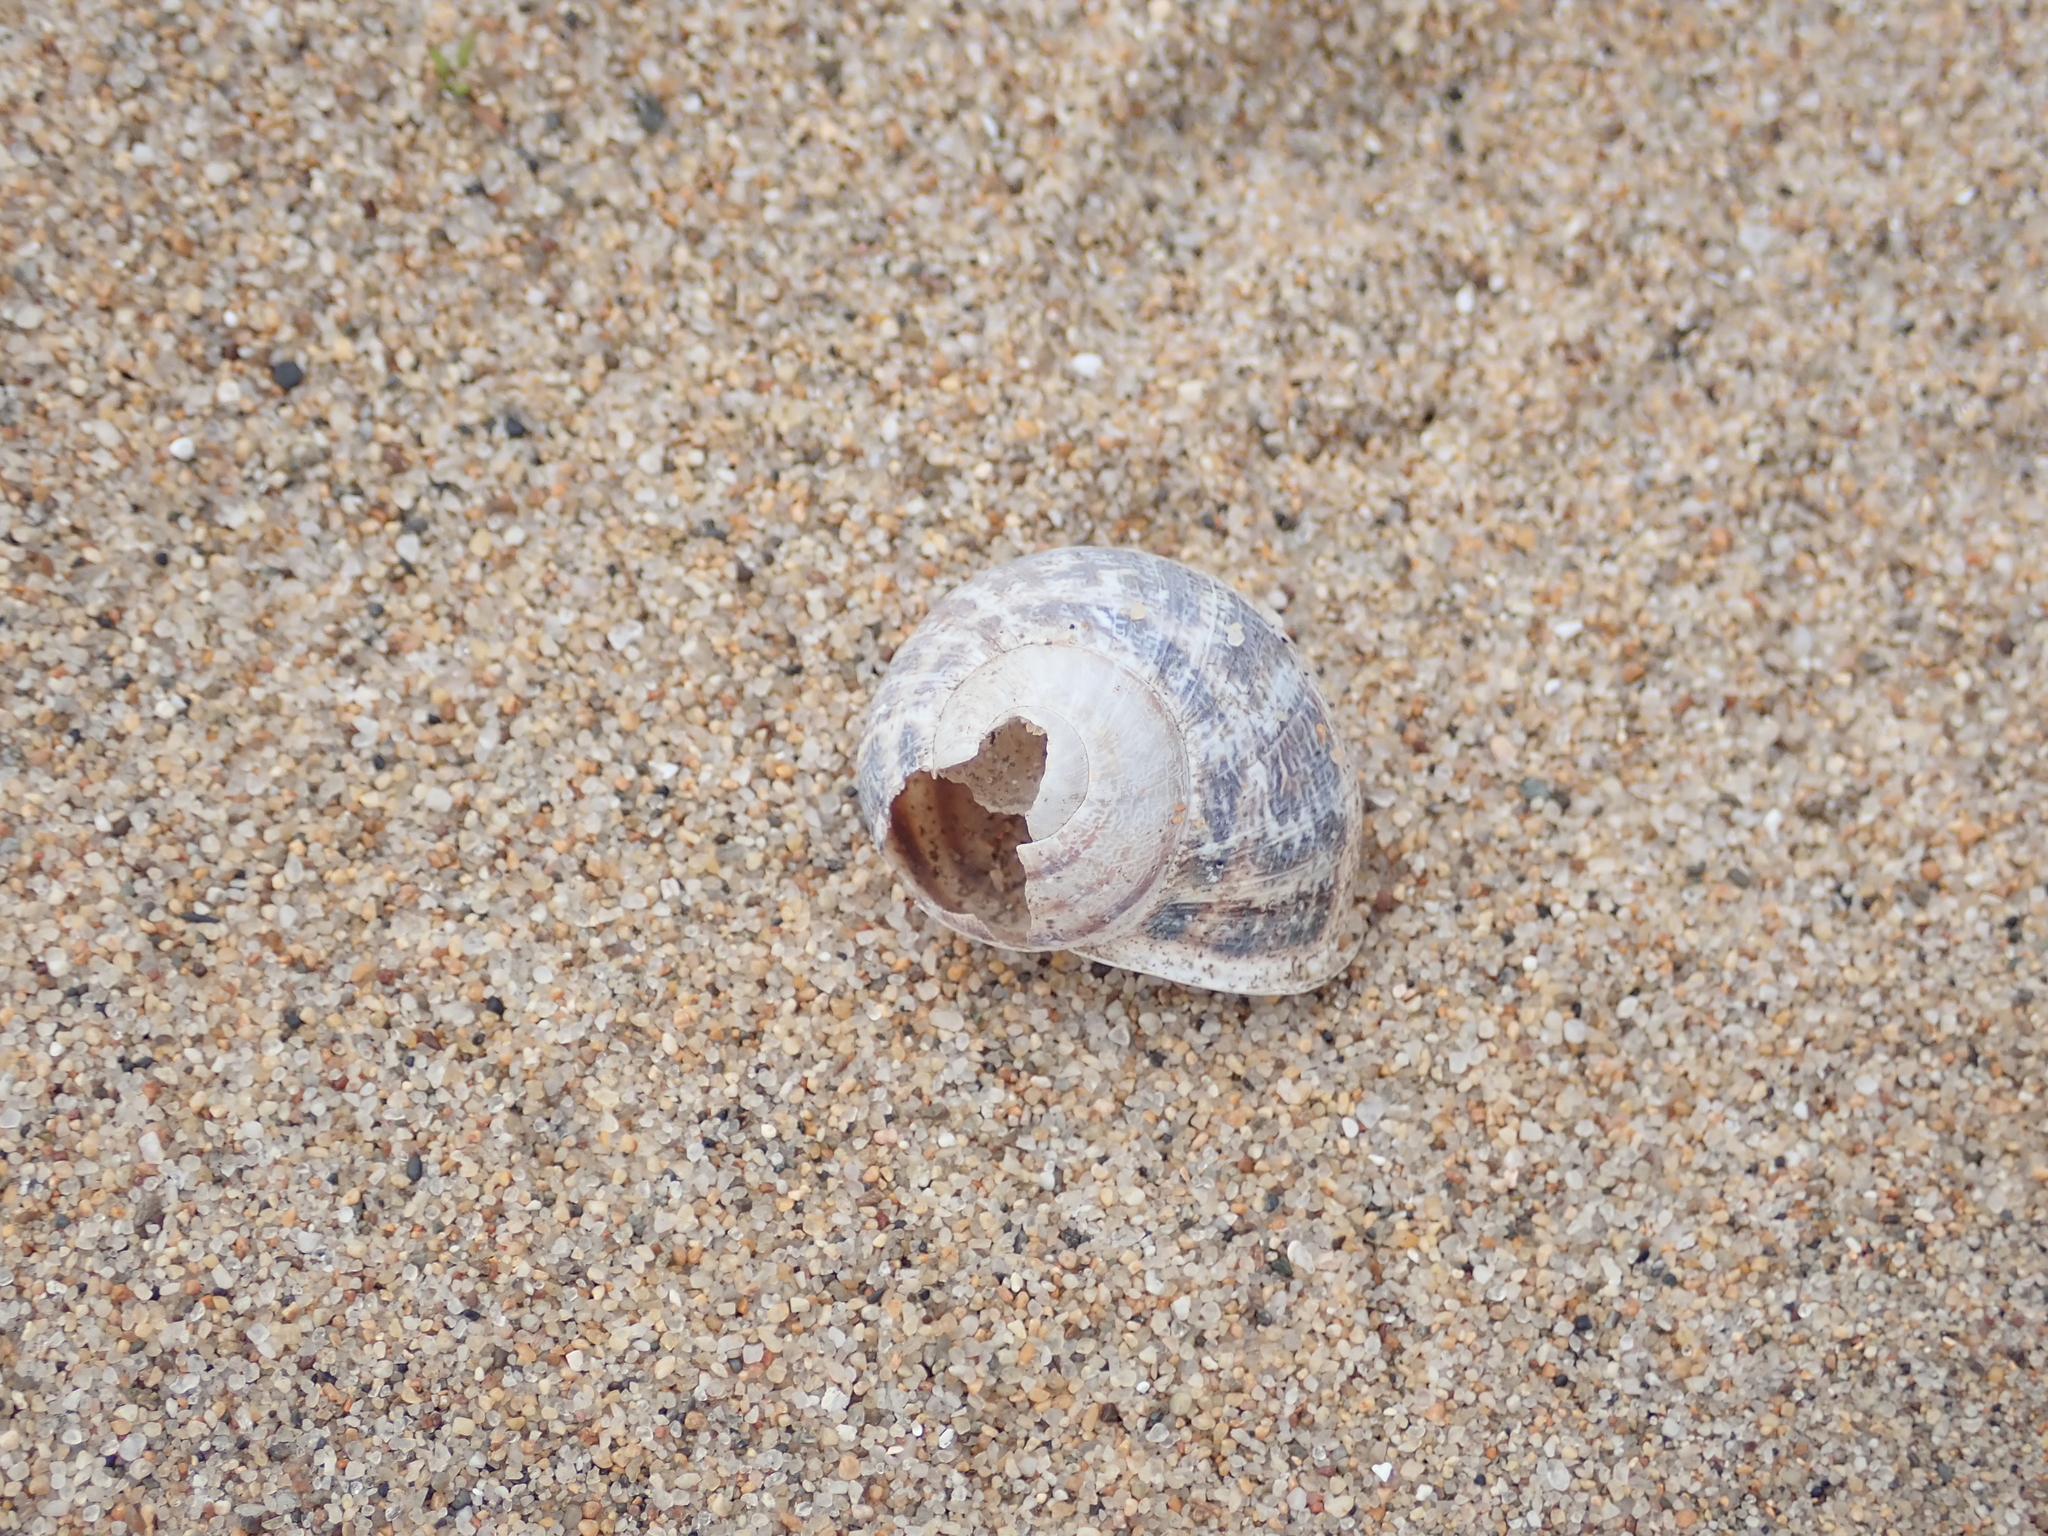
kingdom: Animalia
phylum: Mollusca
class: Gastropoda
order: Stylommatophora
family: Helicidae
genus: Cornu
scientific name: Cornu aspersum
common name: Brown garden snail
